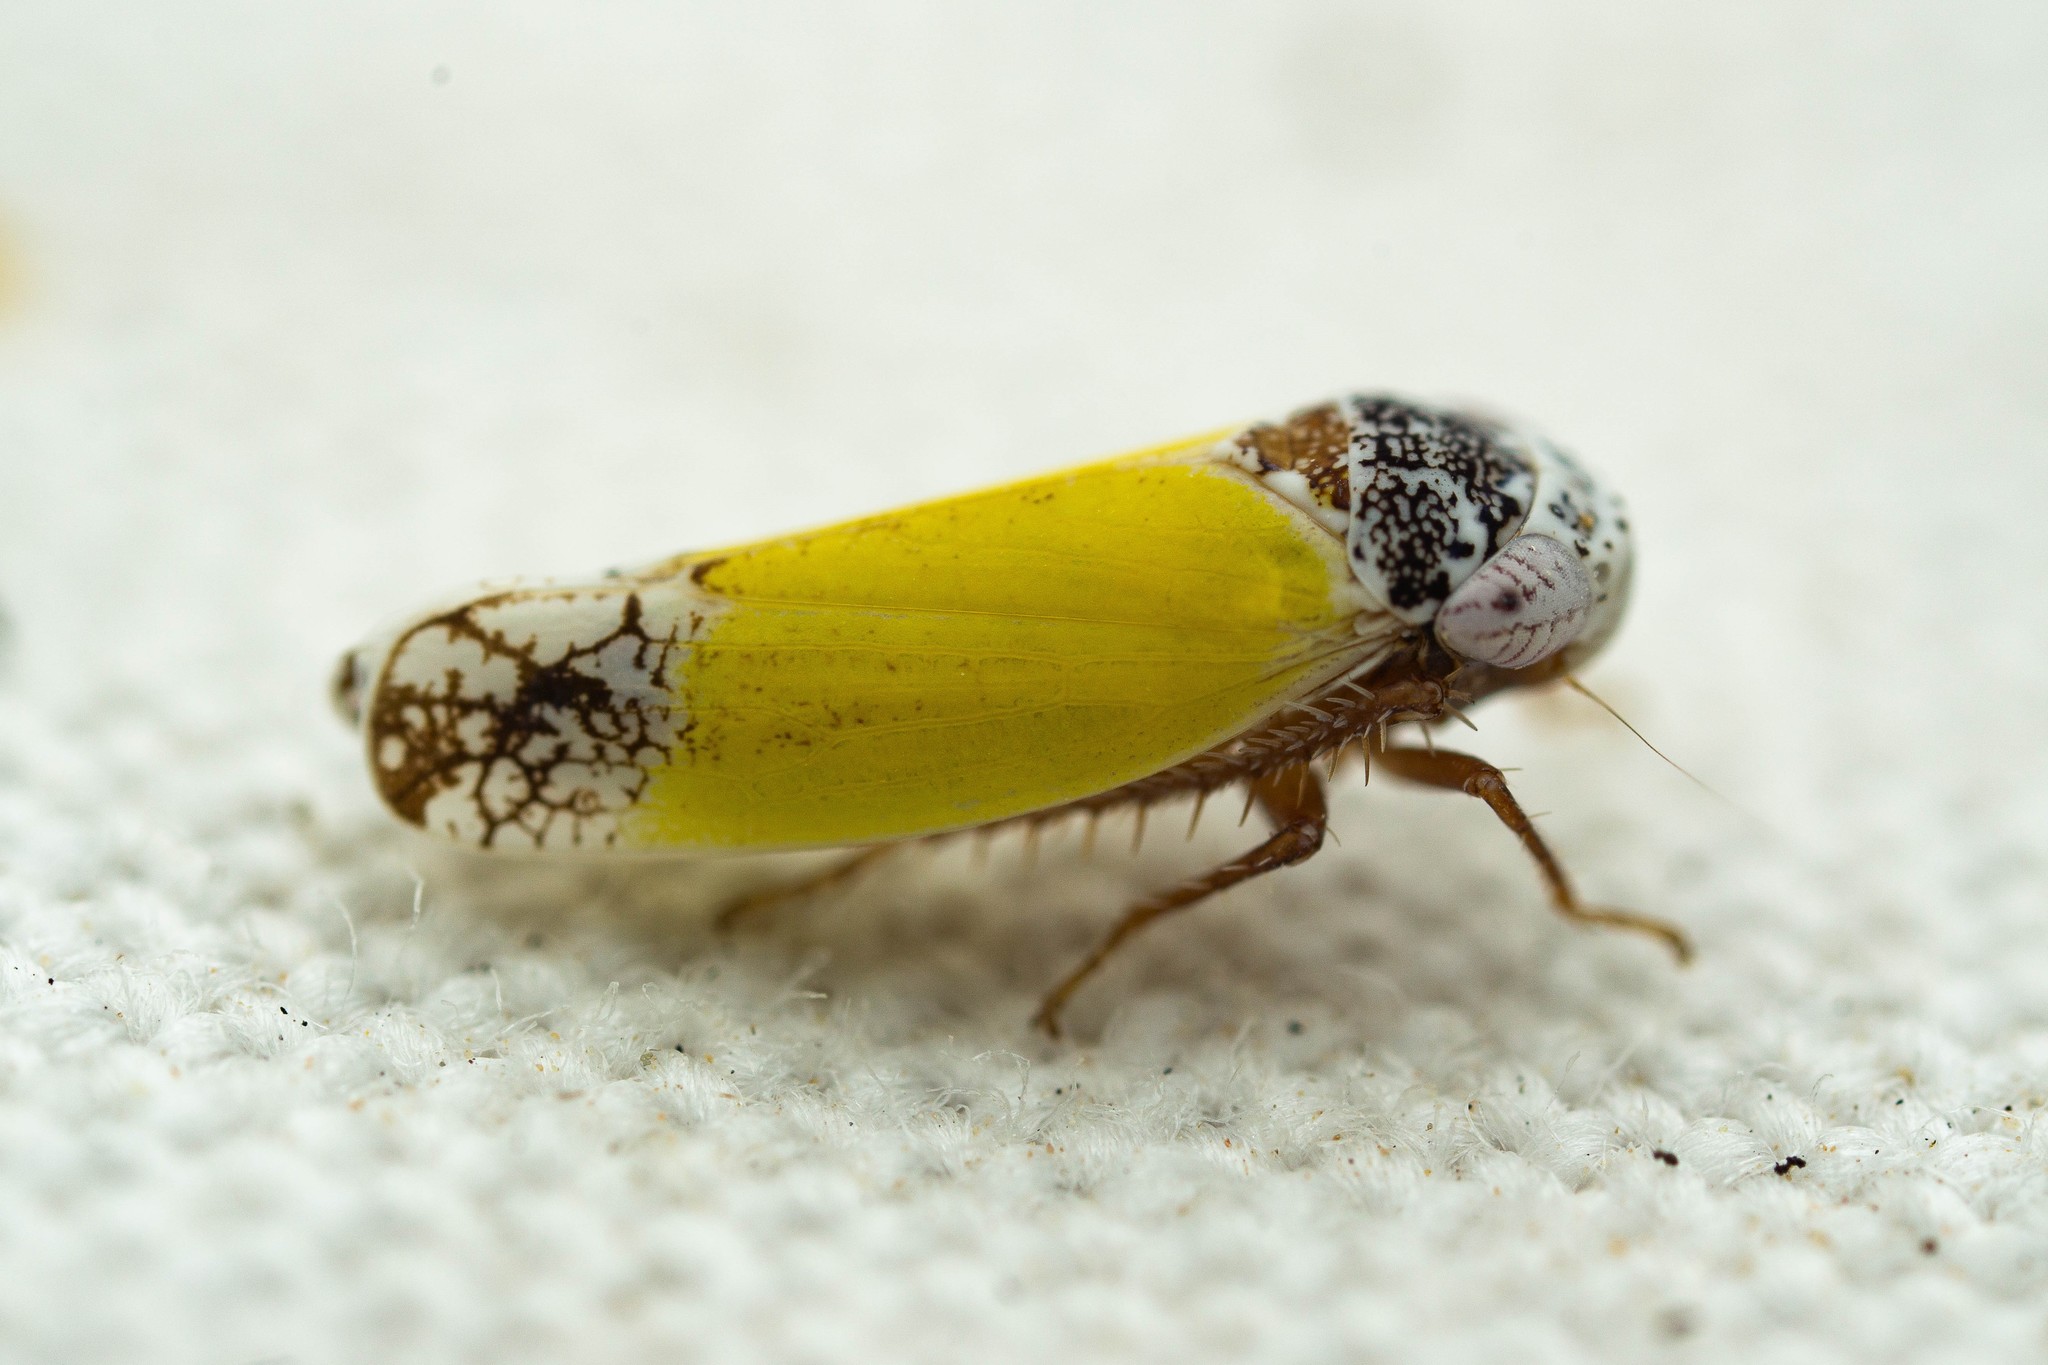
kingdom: Animalia
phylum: Arthropoda
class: Insecta
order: Hemiptera
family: Cicadellidae
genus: Norvellina
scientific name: Norvellina bicolorata
